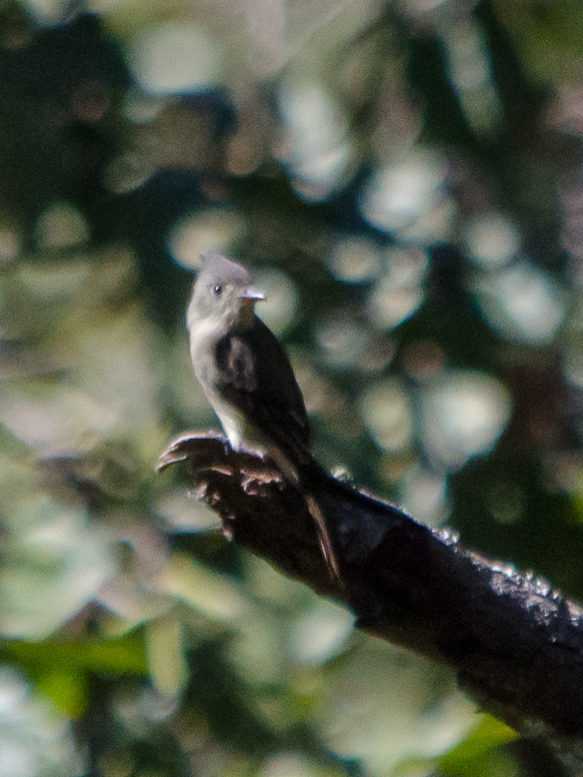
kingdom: Animalia
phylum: Chordata
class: Aves
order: Passeriformes
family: Tyrannidae
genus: Contopus
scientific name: Contopus pertinax
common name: Greater pewee
